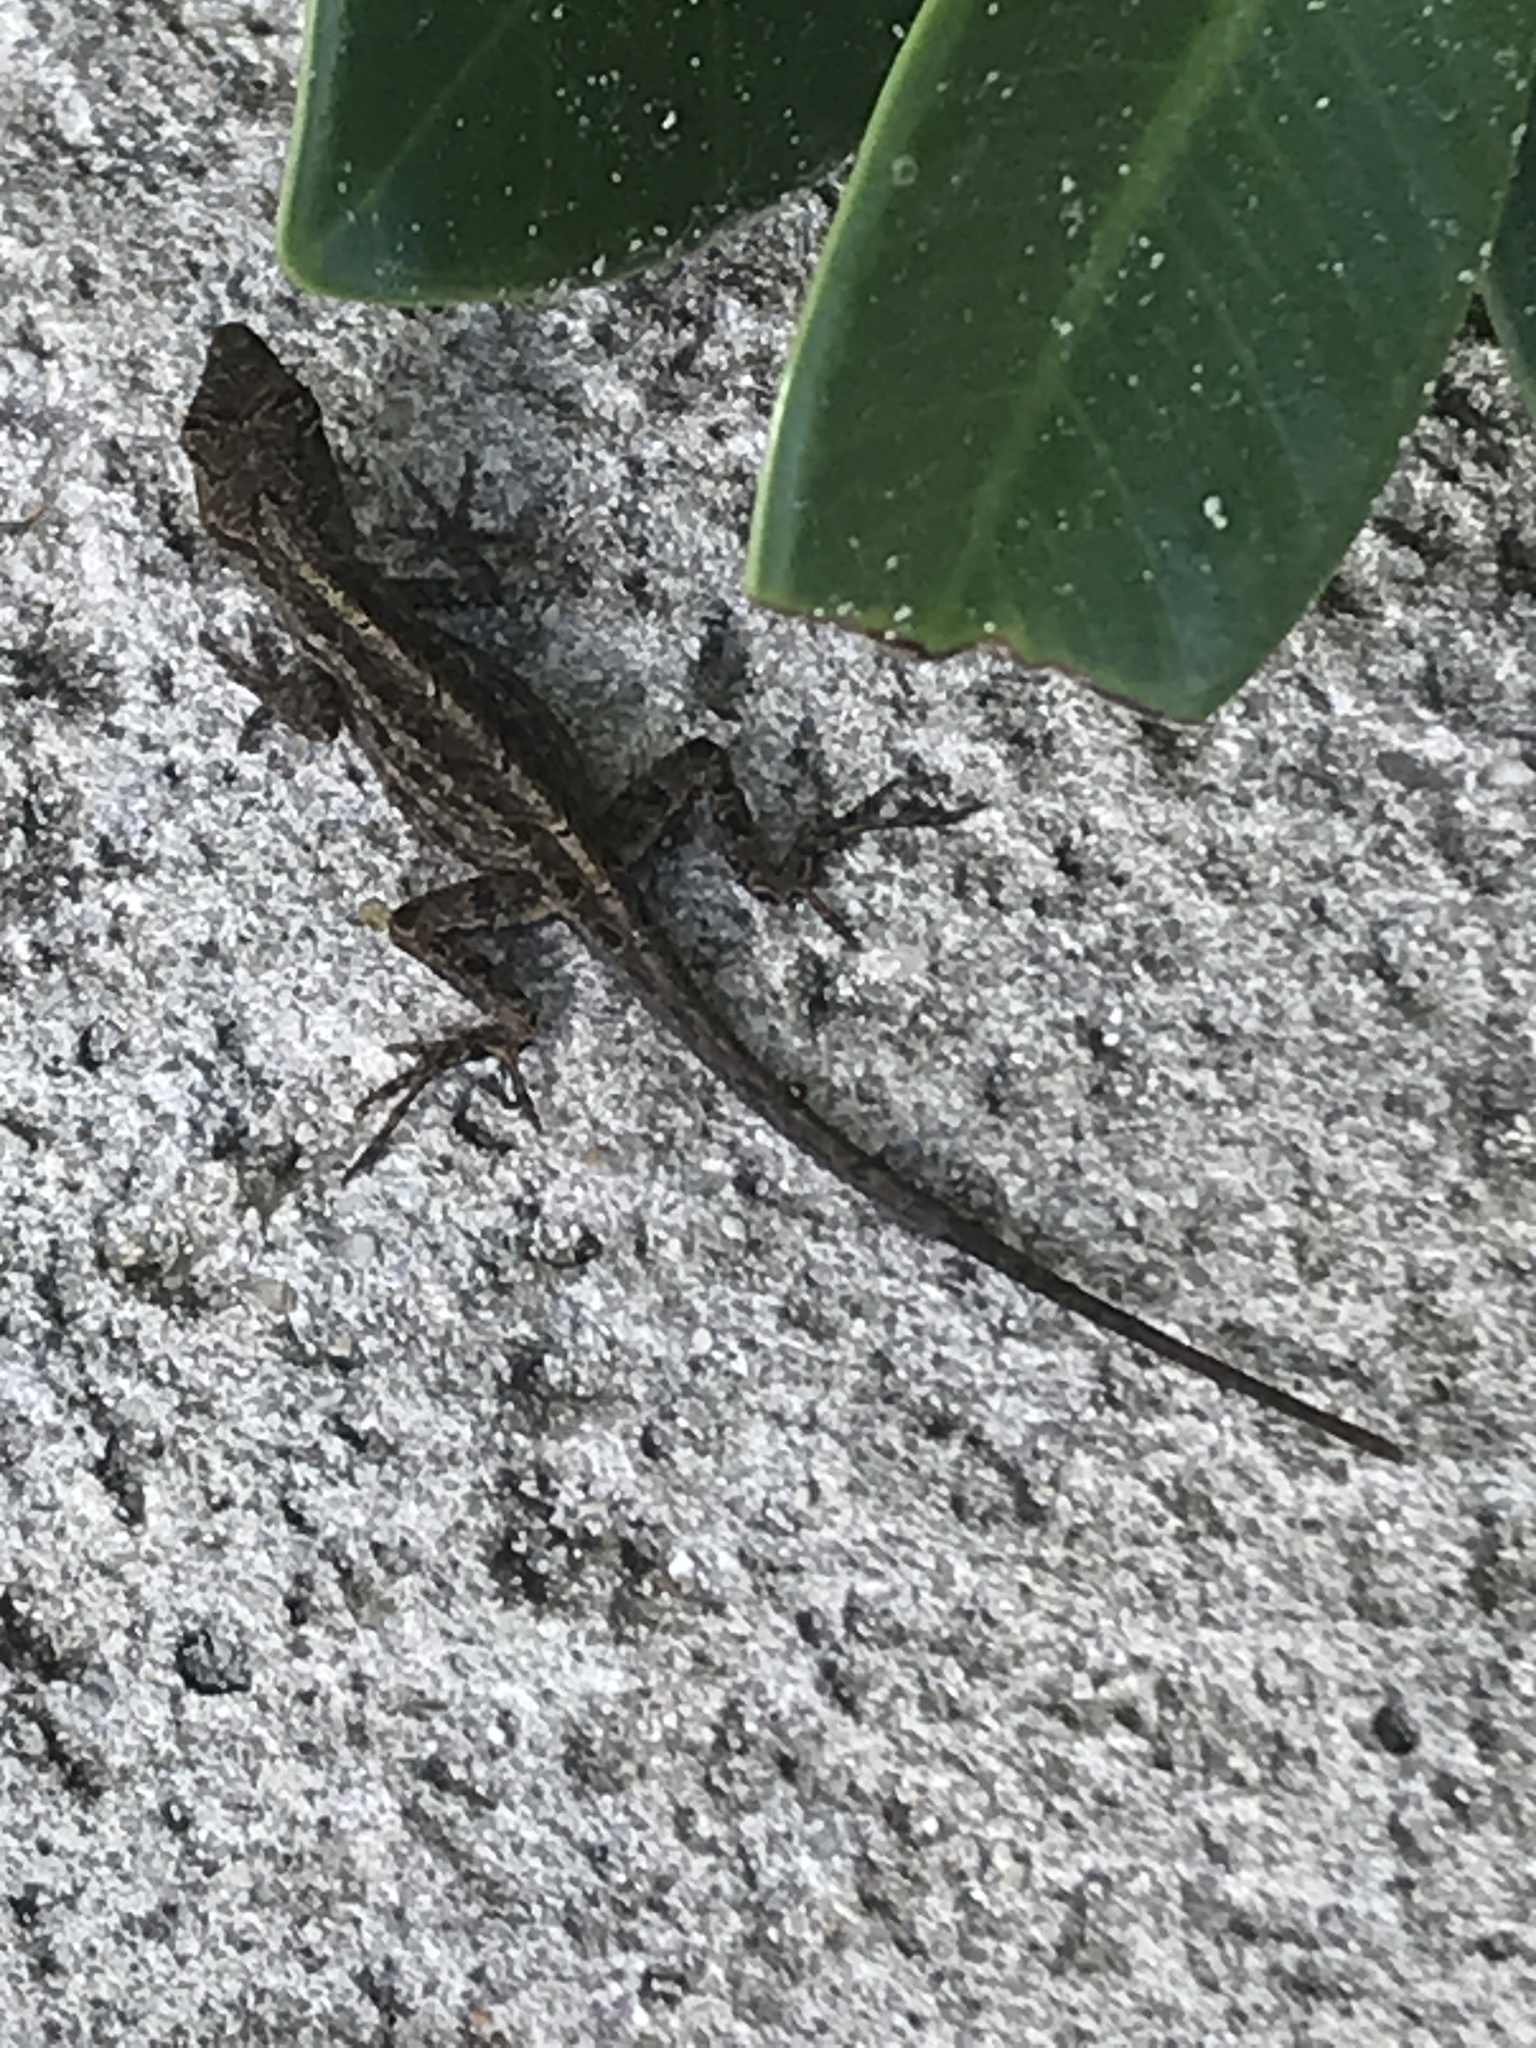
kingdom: Animalia
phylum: Chordata
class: Squamata
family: Dactyloidae
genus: Anolis
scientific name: Anolis sagrei
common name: Brown anole
